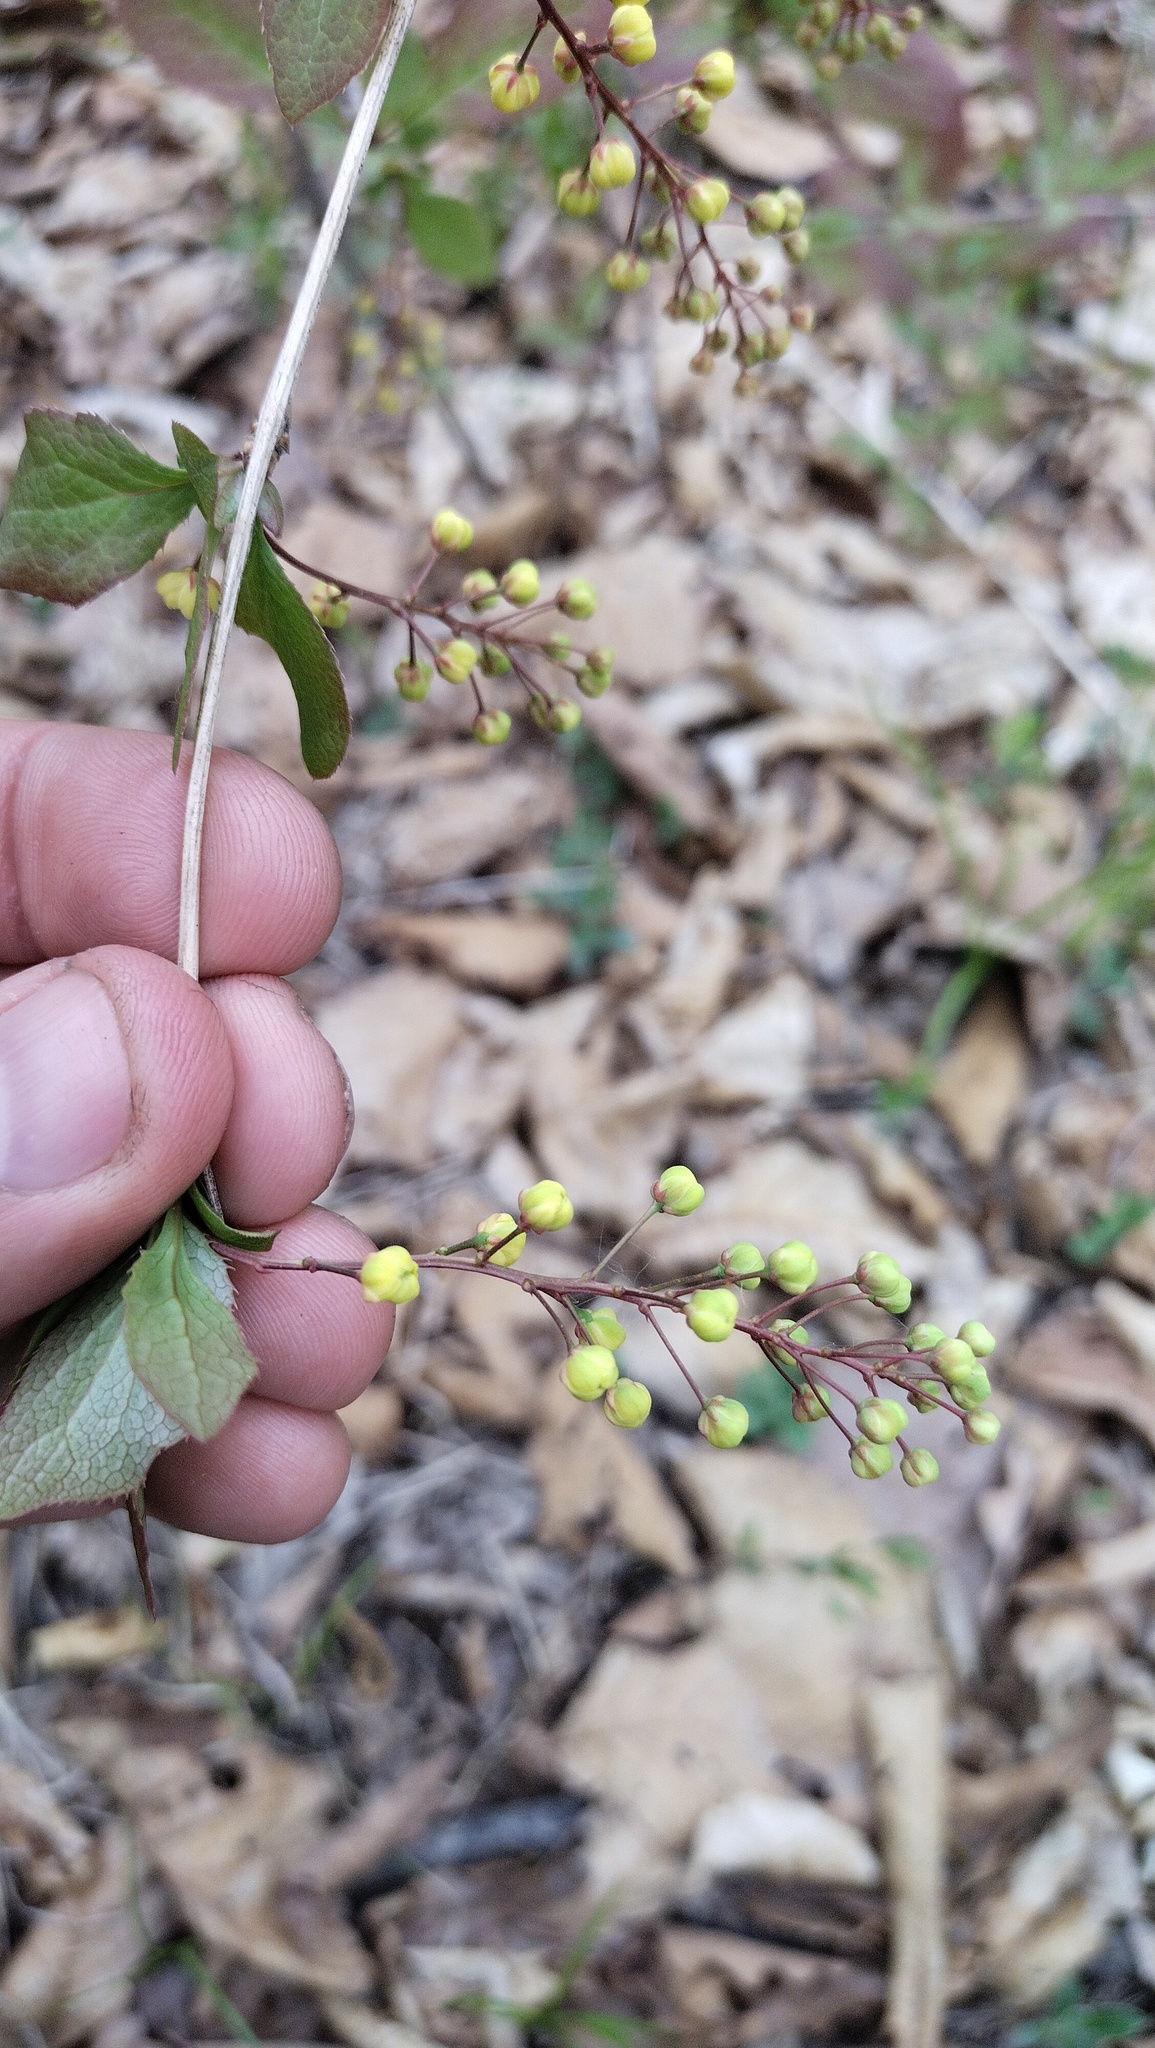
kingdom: Plantae
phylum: Tracheophyta
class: Magnoliopsida
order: Ranunculales
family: Berberidaceae
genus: Berberis
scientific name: Berberis amurensis
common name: Amur barberry
